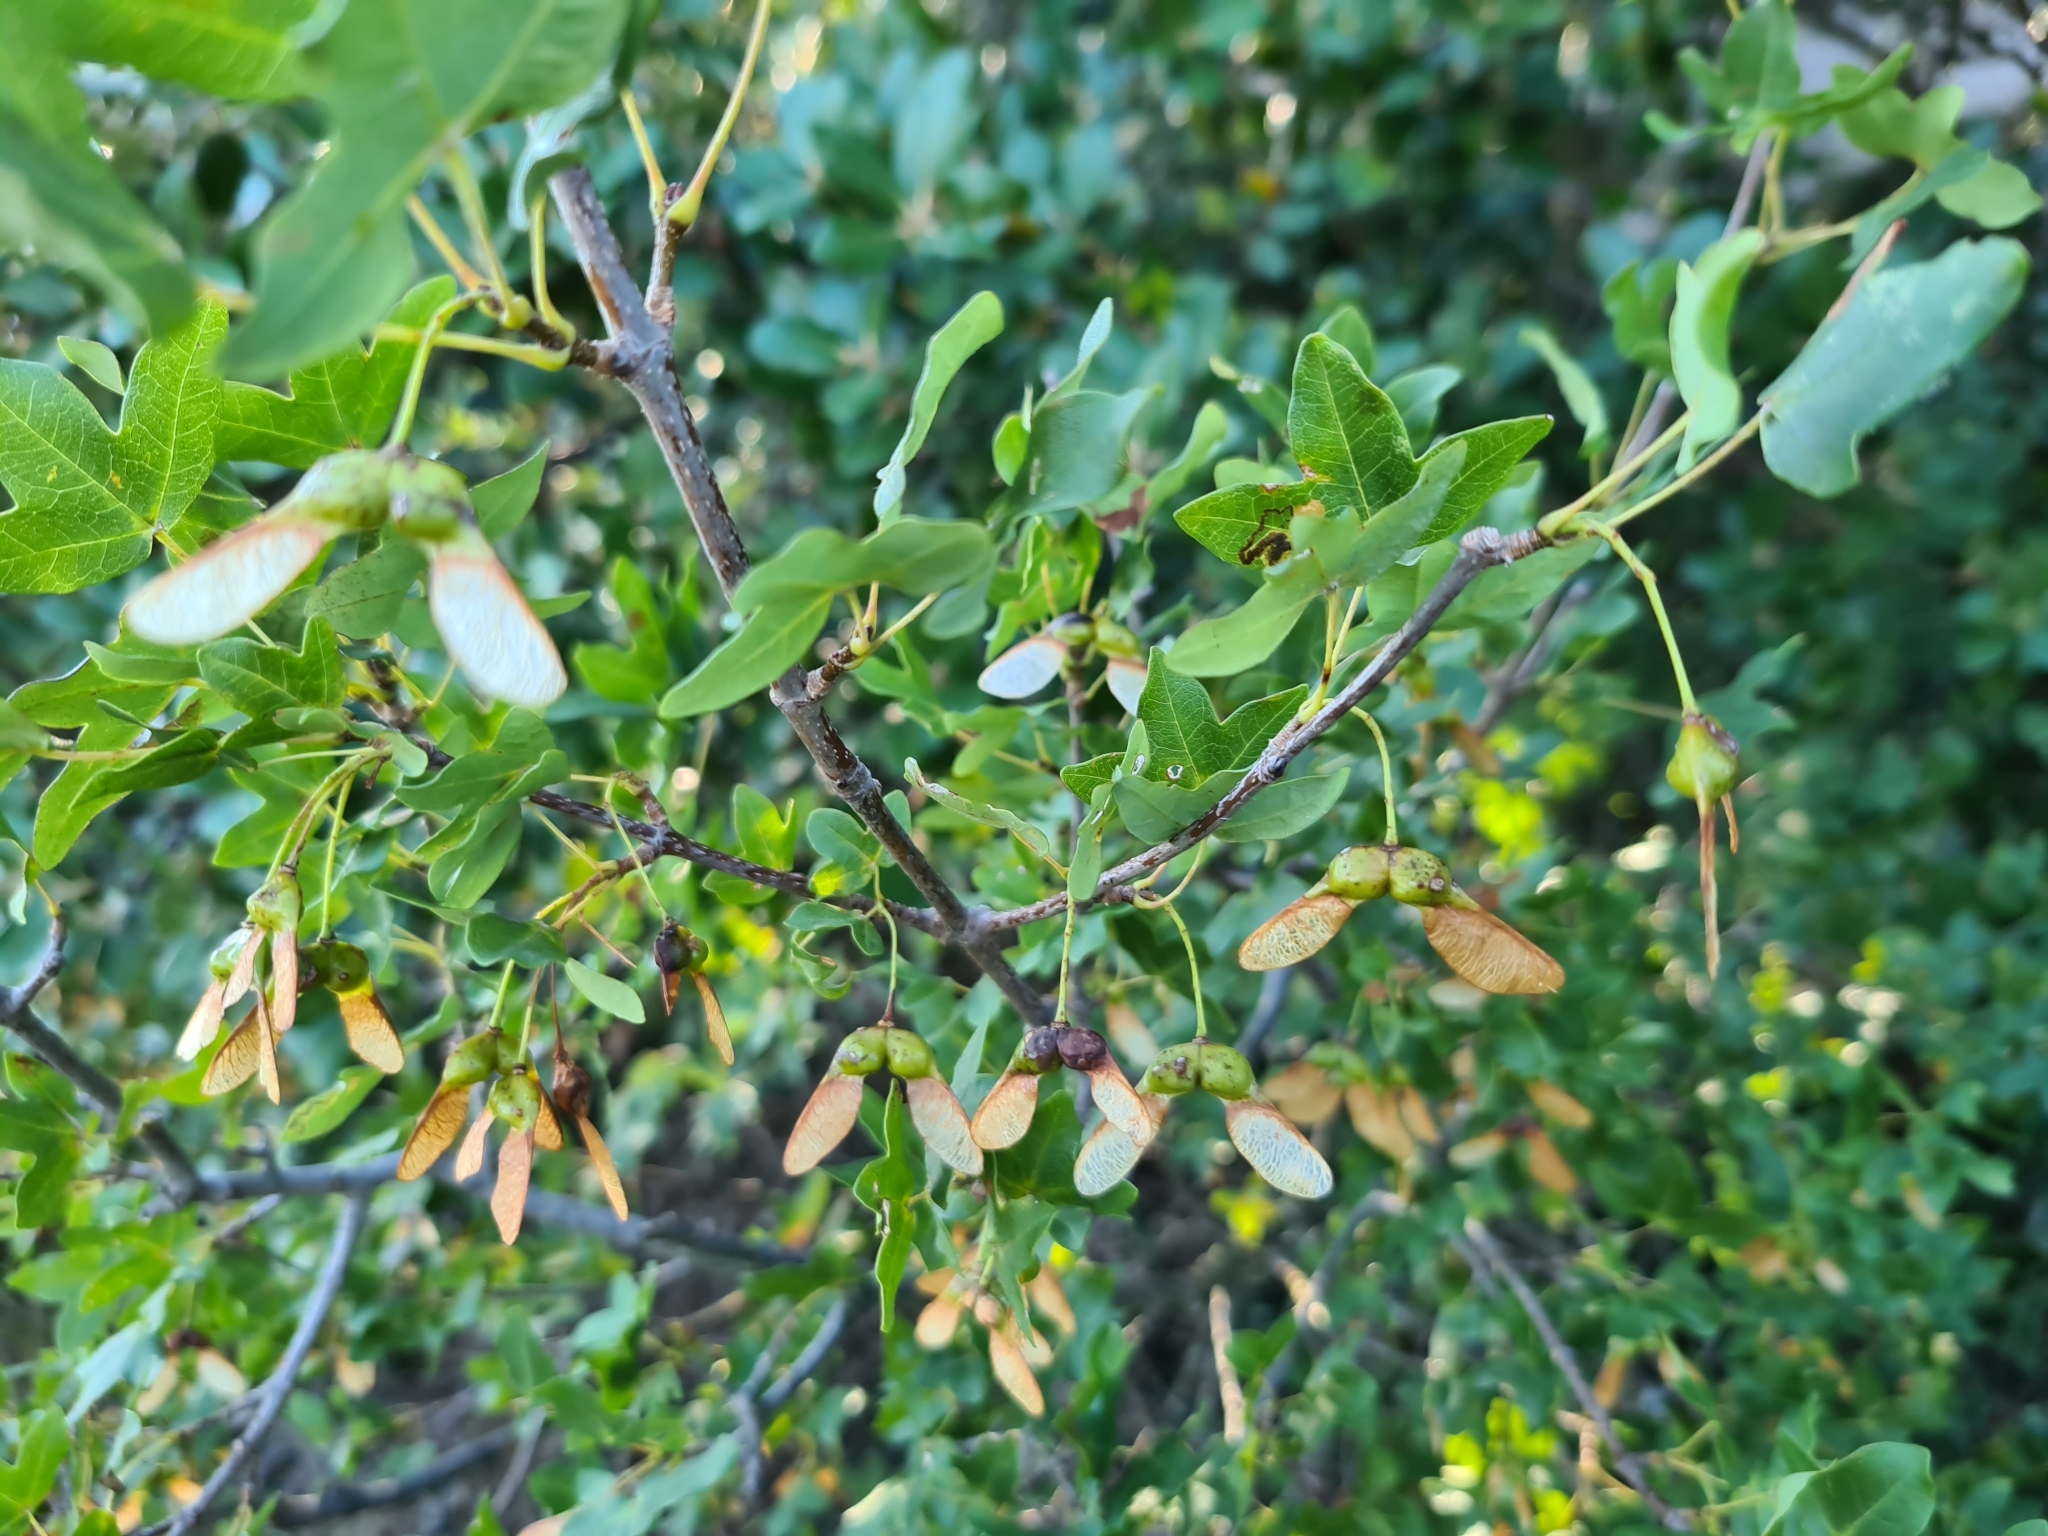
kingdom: Plantae
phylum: Tracheophyta
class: Magnoliopsida
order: Sapindales
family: Sapindaceae
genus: Acer
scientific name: Acer monspessulanum
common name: Montpellier maple
